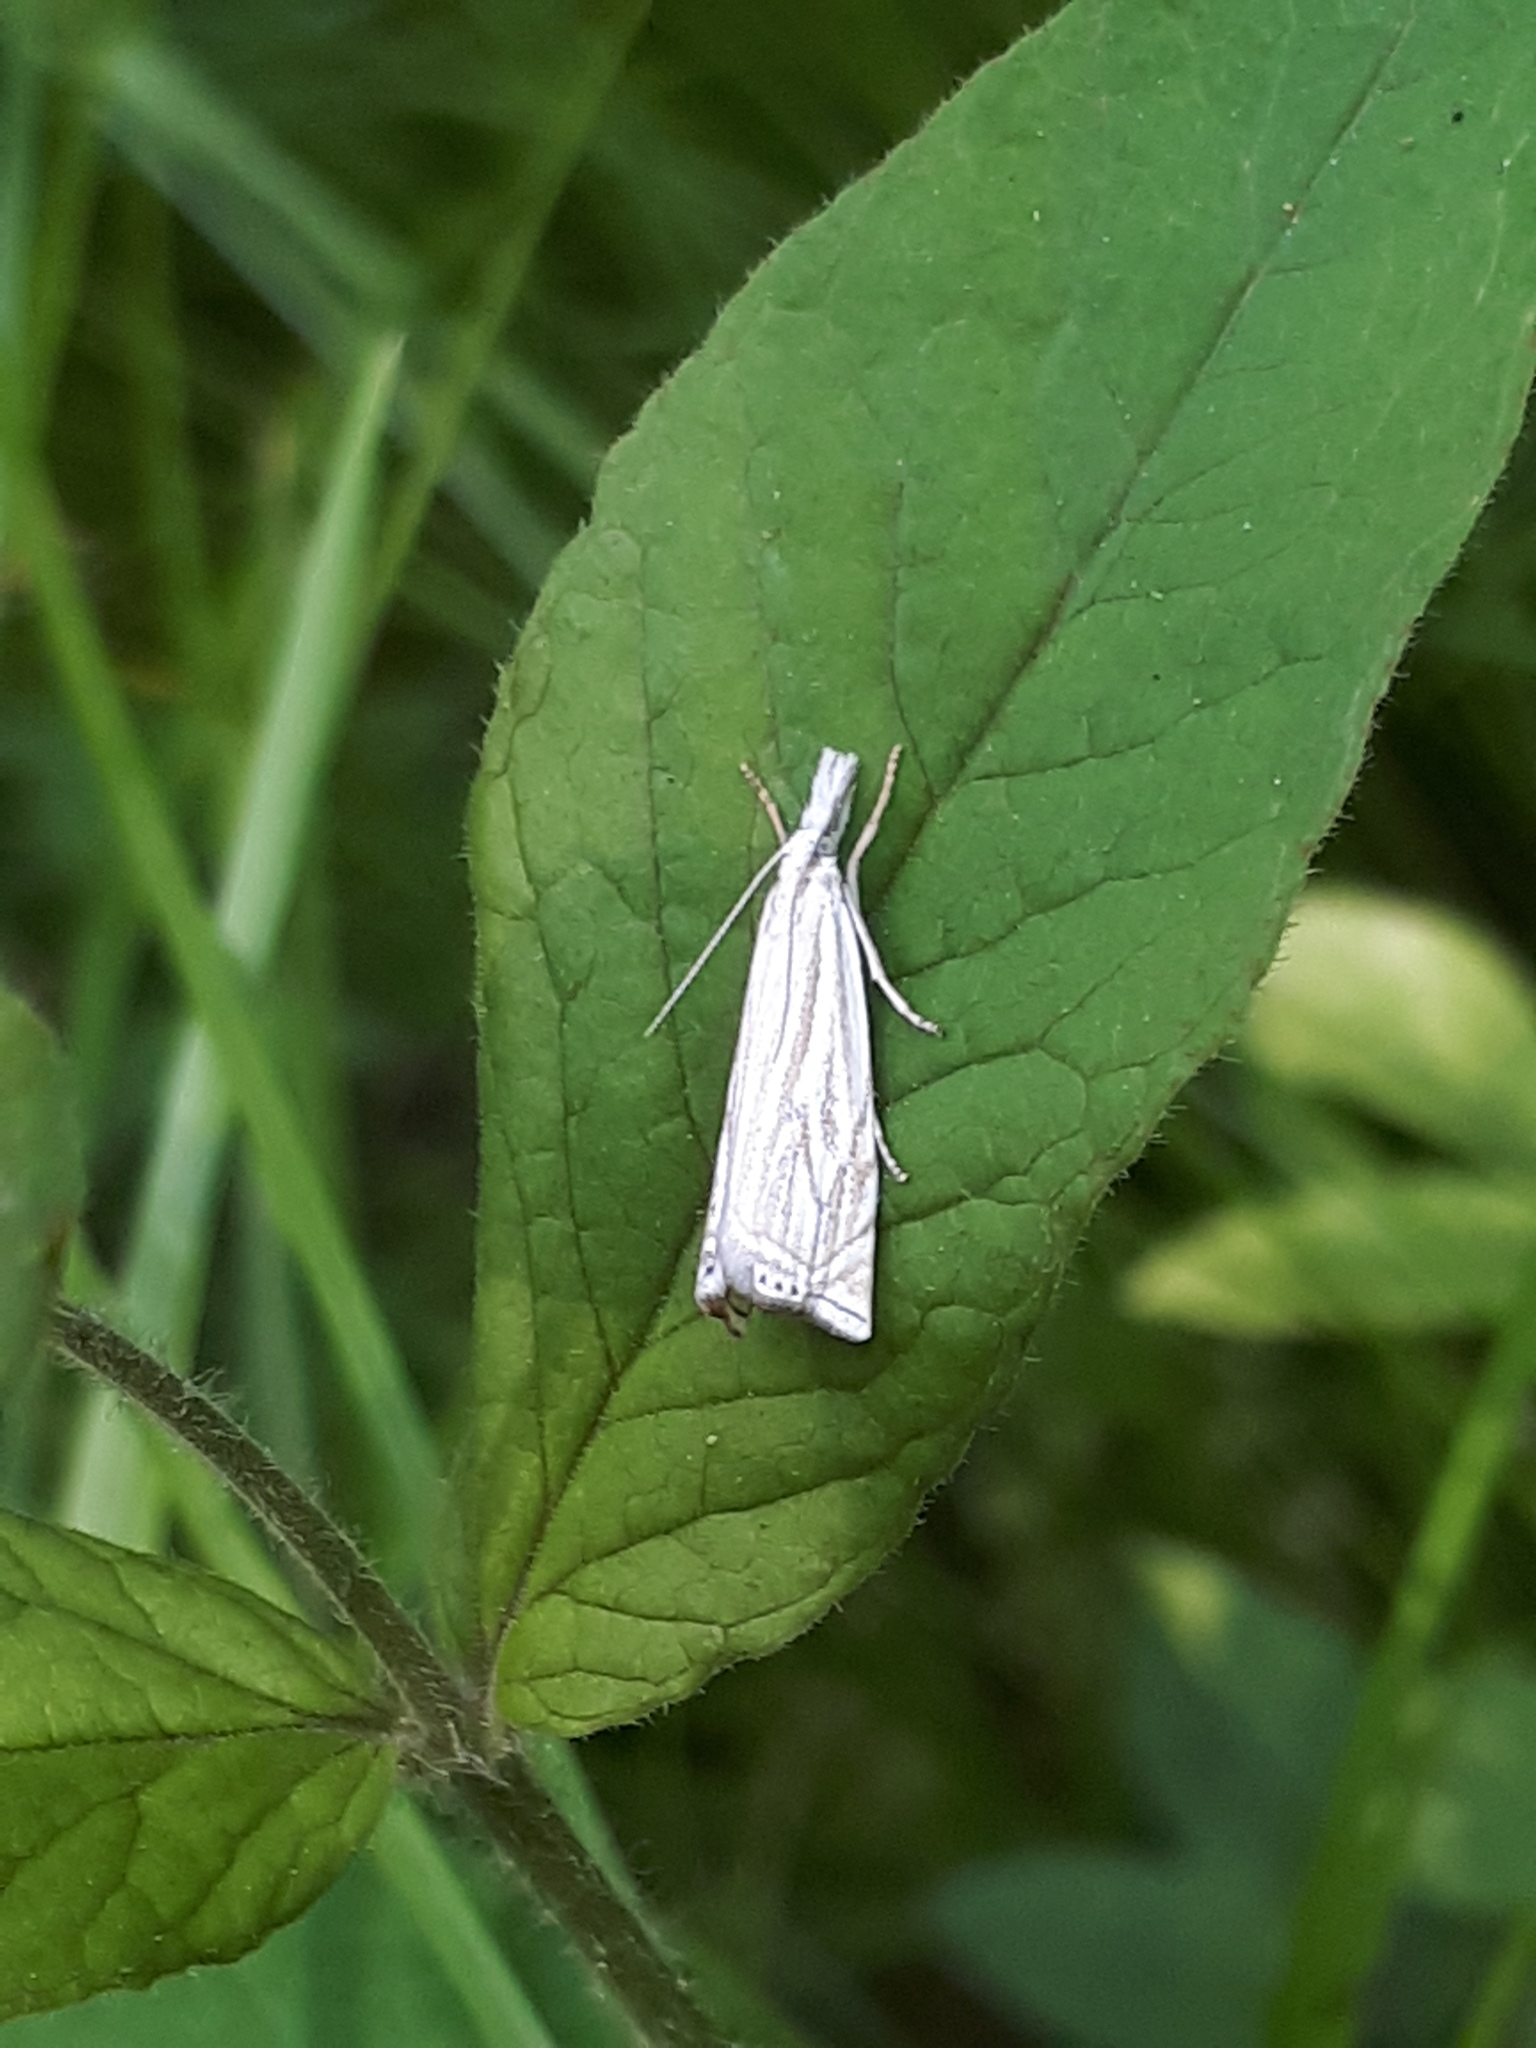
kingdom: Animalia
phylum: Arthropoda
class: Insecta
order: Lepidoptera
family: Crambidae
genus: Crambus
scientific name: Crambus nemorella
